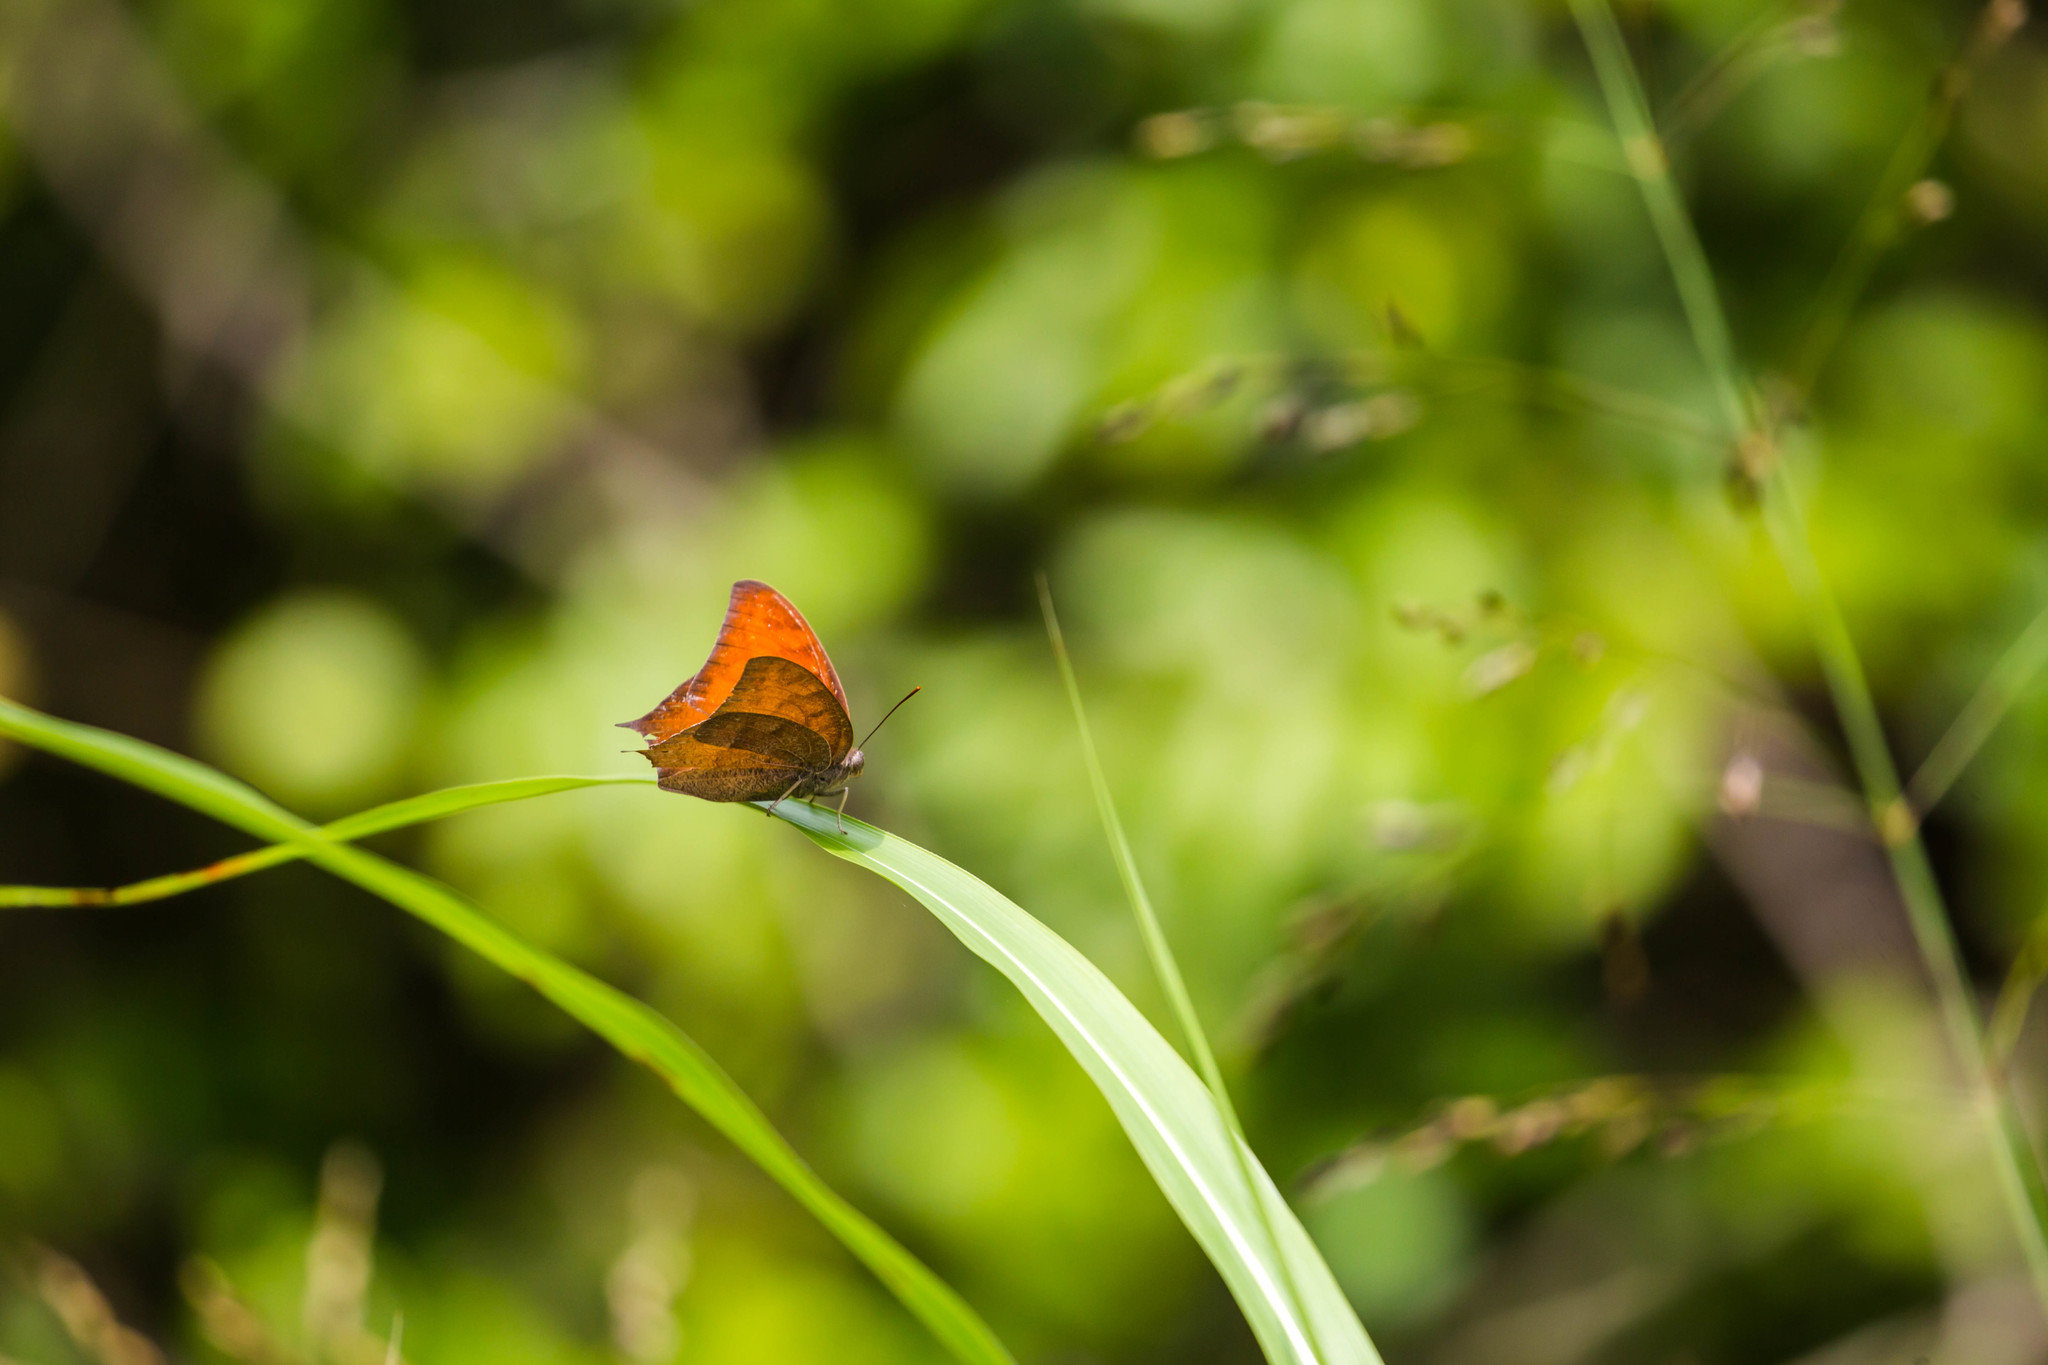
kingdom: Animalia
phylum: Arthropoda
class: Insecta
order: Lepidoptera
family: Nymphalidae
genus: Anaea
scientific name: Anaea andria
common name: Goatweed leafwing
